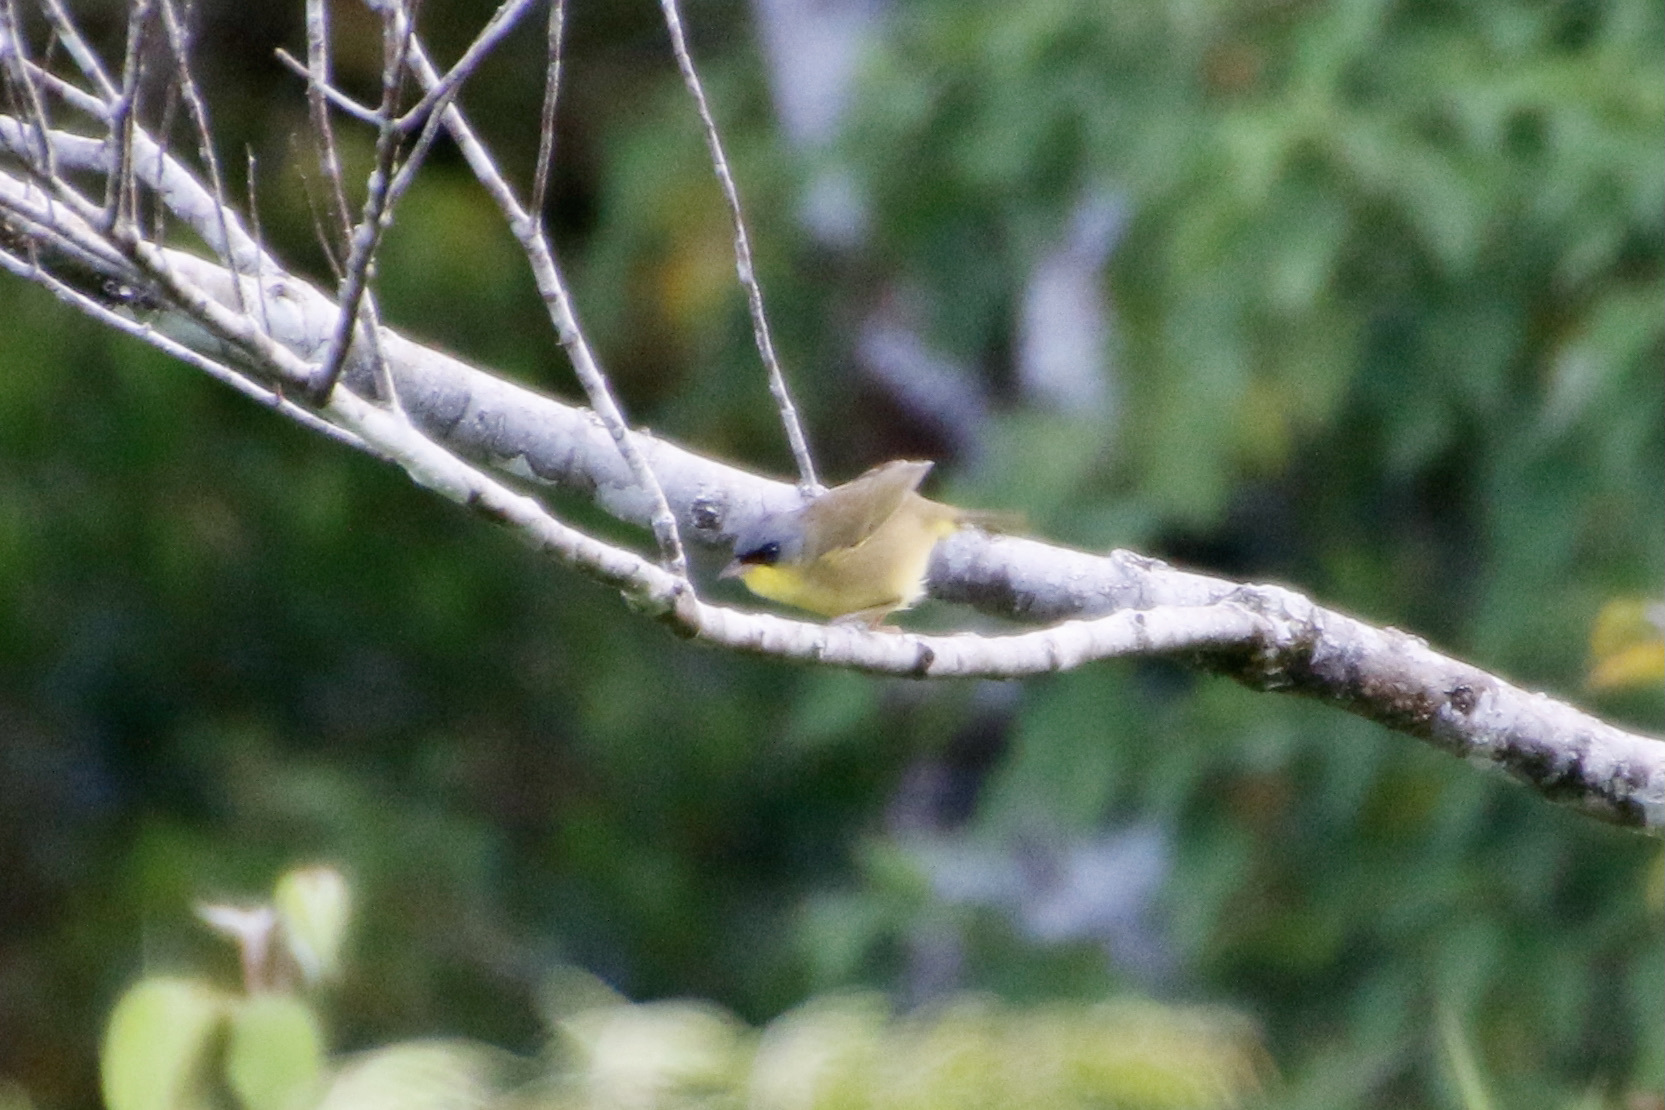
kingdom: Animalia
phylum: Chordata
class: Aves
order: Passeriformes
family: Parulidae
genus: Geothlypis
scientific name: Geothlypis poliocephala
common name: Gray-crowned yellowthroat
